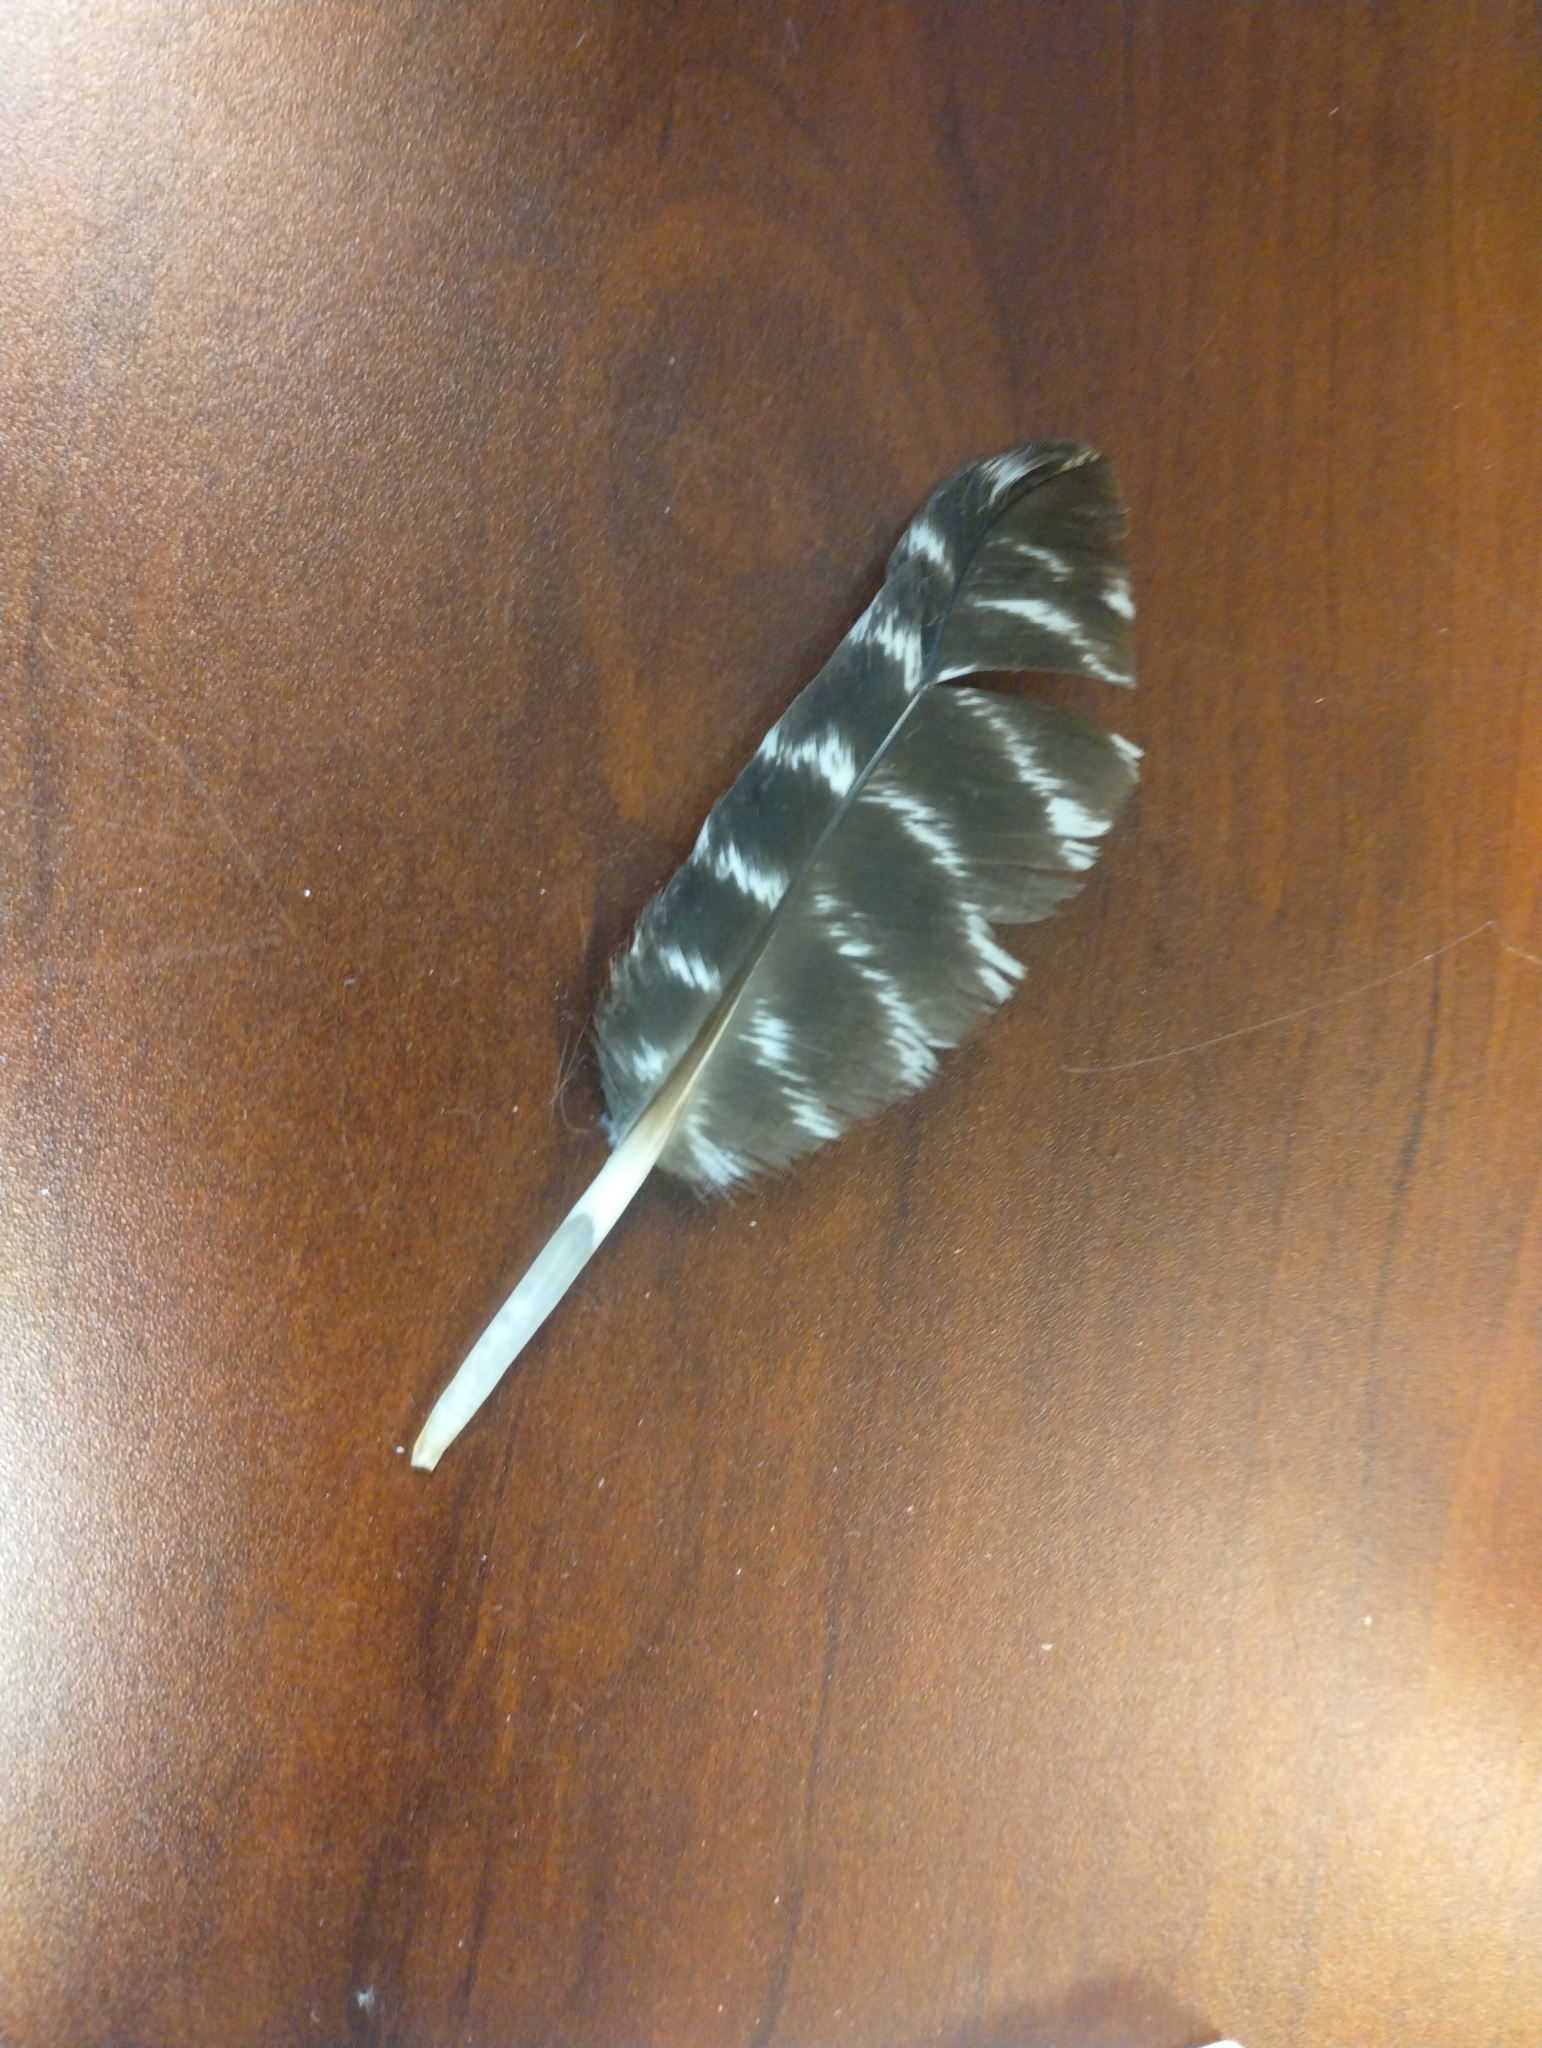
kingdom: Animalia
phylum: Chordata
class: Aves
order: Galliformes
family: Phasianidae
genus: Meleagris
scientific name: Meleagris gallopavo
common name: Wild turkey
